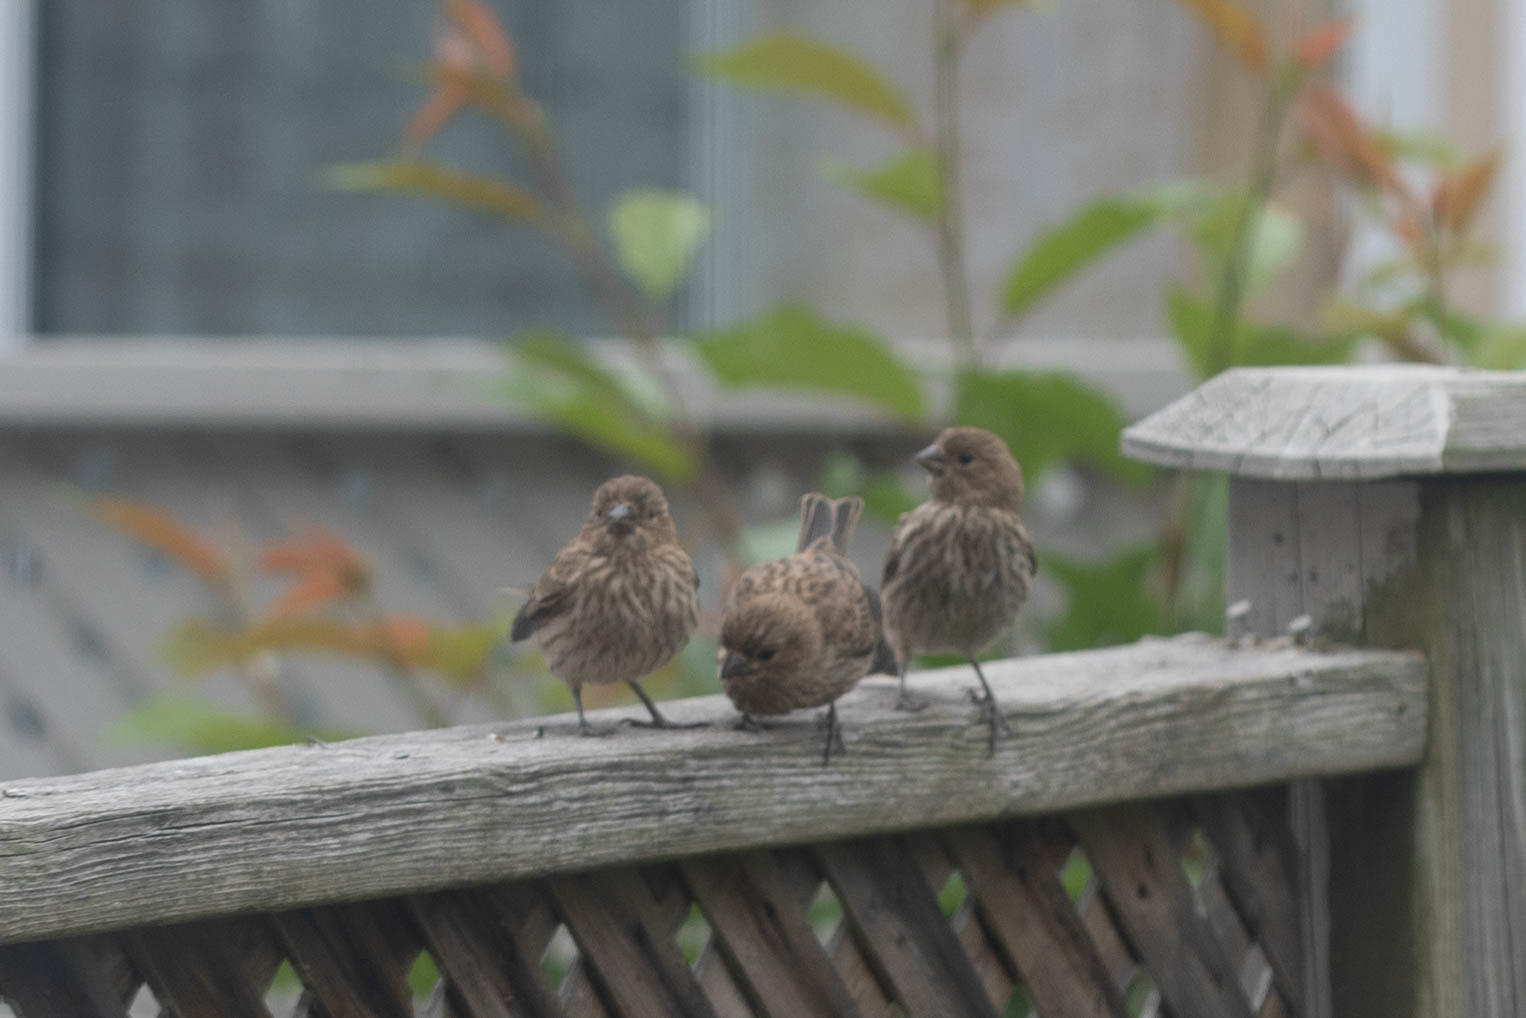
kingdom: Animalia
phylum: Chordata
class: Aves
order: Passeriformes
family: Fringillidae
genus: Haemorhous
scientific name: Haemorhous mexicanus
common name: House finch
